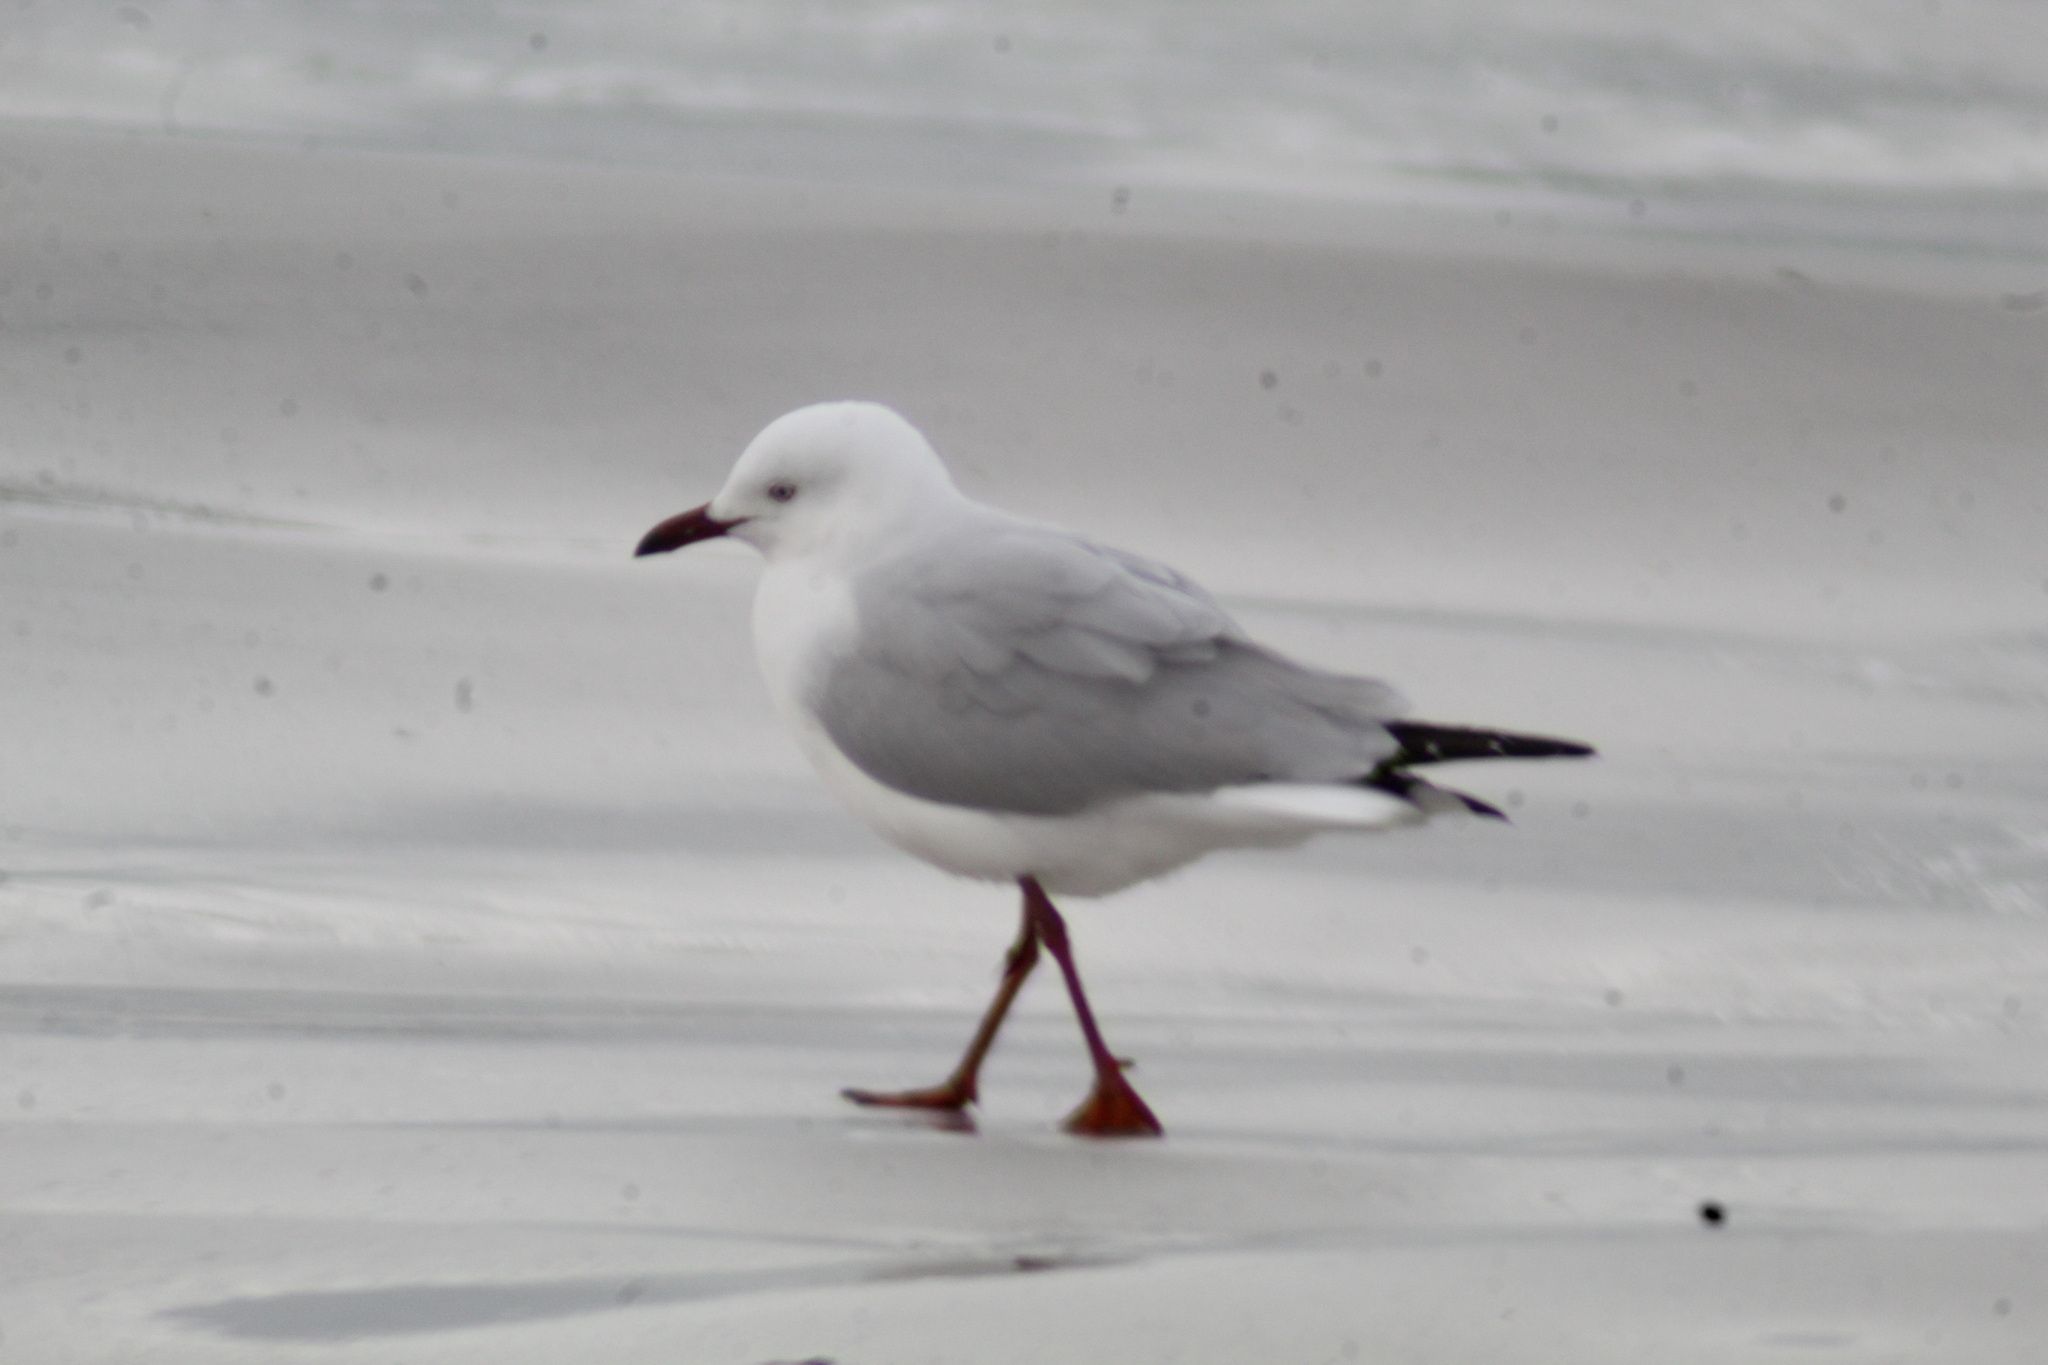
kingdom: Animalia
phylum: Chordata
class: Aves
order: Charadriiformes
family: Laridae
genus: Chroicocephalus
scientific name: Chroicocephalus novaehollandiae
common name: Silver gull
